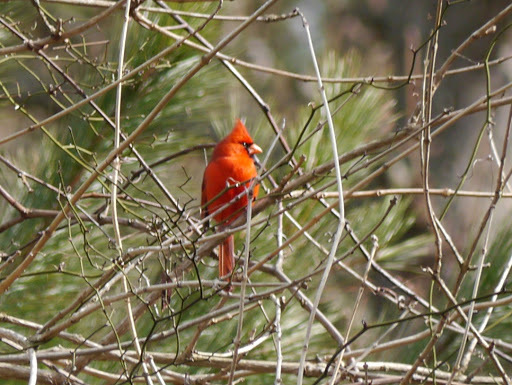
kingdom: Animalia
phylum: Chordata
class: Aves
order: Passeriformes
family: Cardinalidae
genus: Cardinalis
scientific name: Cardinalis cardinalis
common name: Northern cardinal
